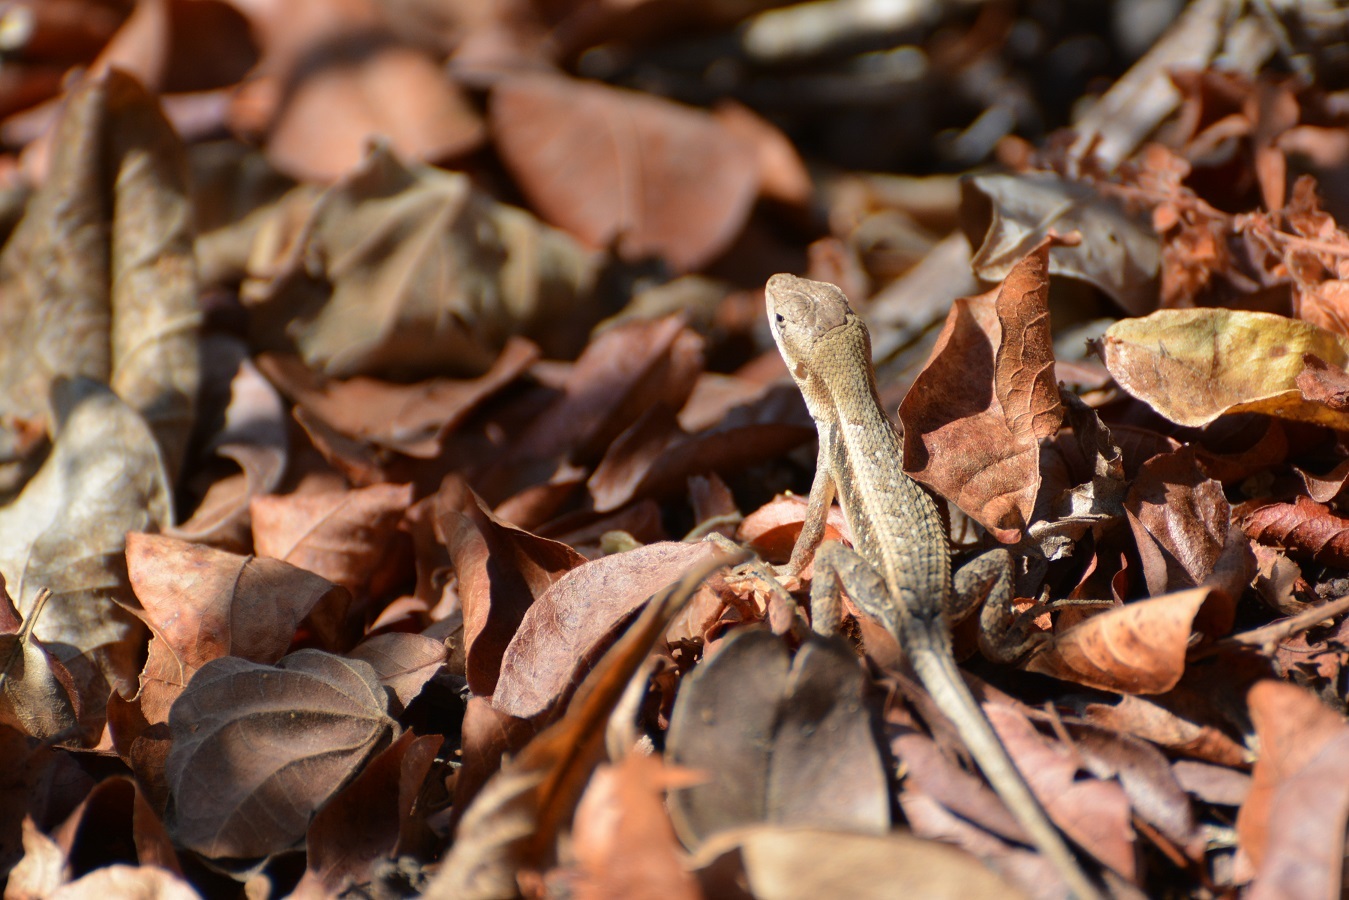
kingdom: Animalia
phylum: Chordata
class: Squamata
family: Phrynosomatidae
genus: Sceloporus
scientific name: Sceloporus carinatus
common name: Keeled spiny lizard
